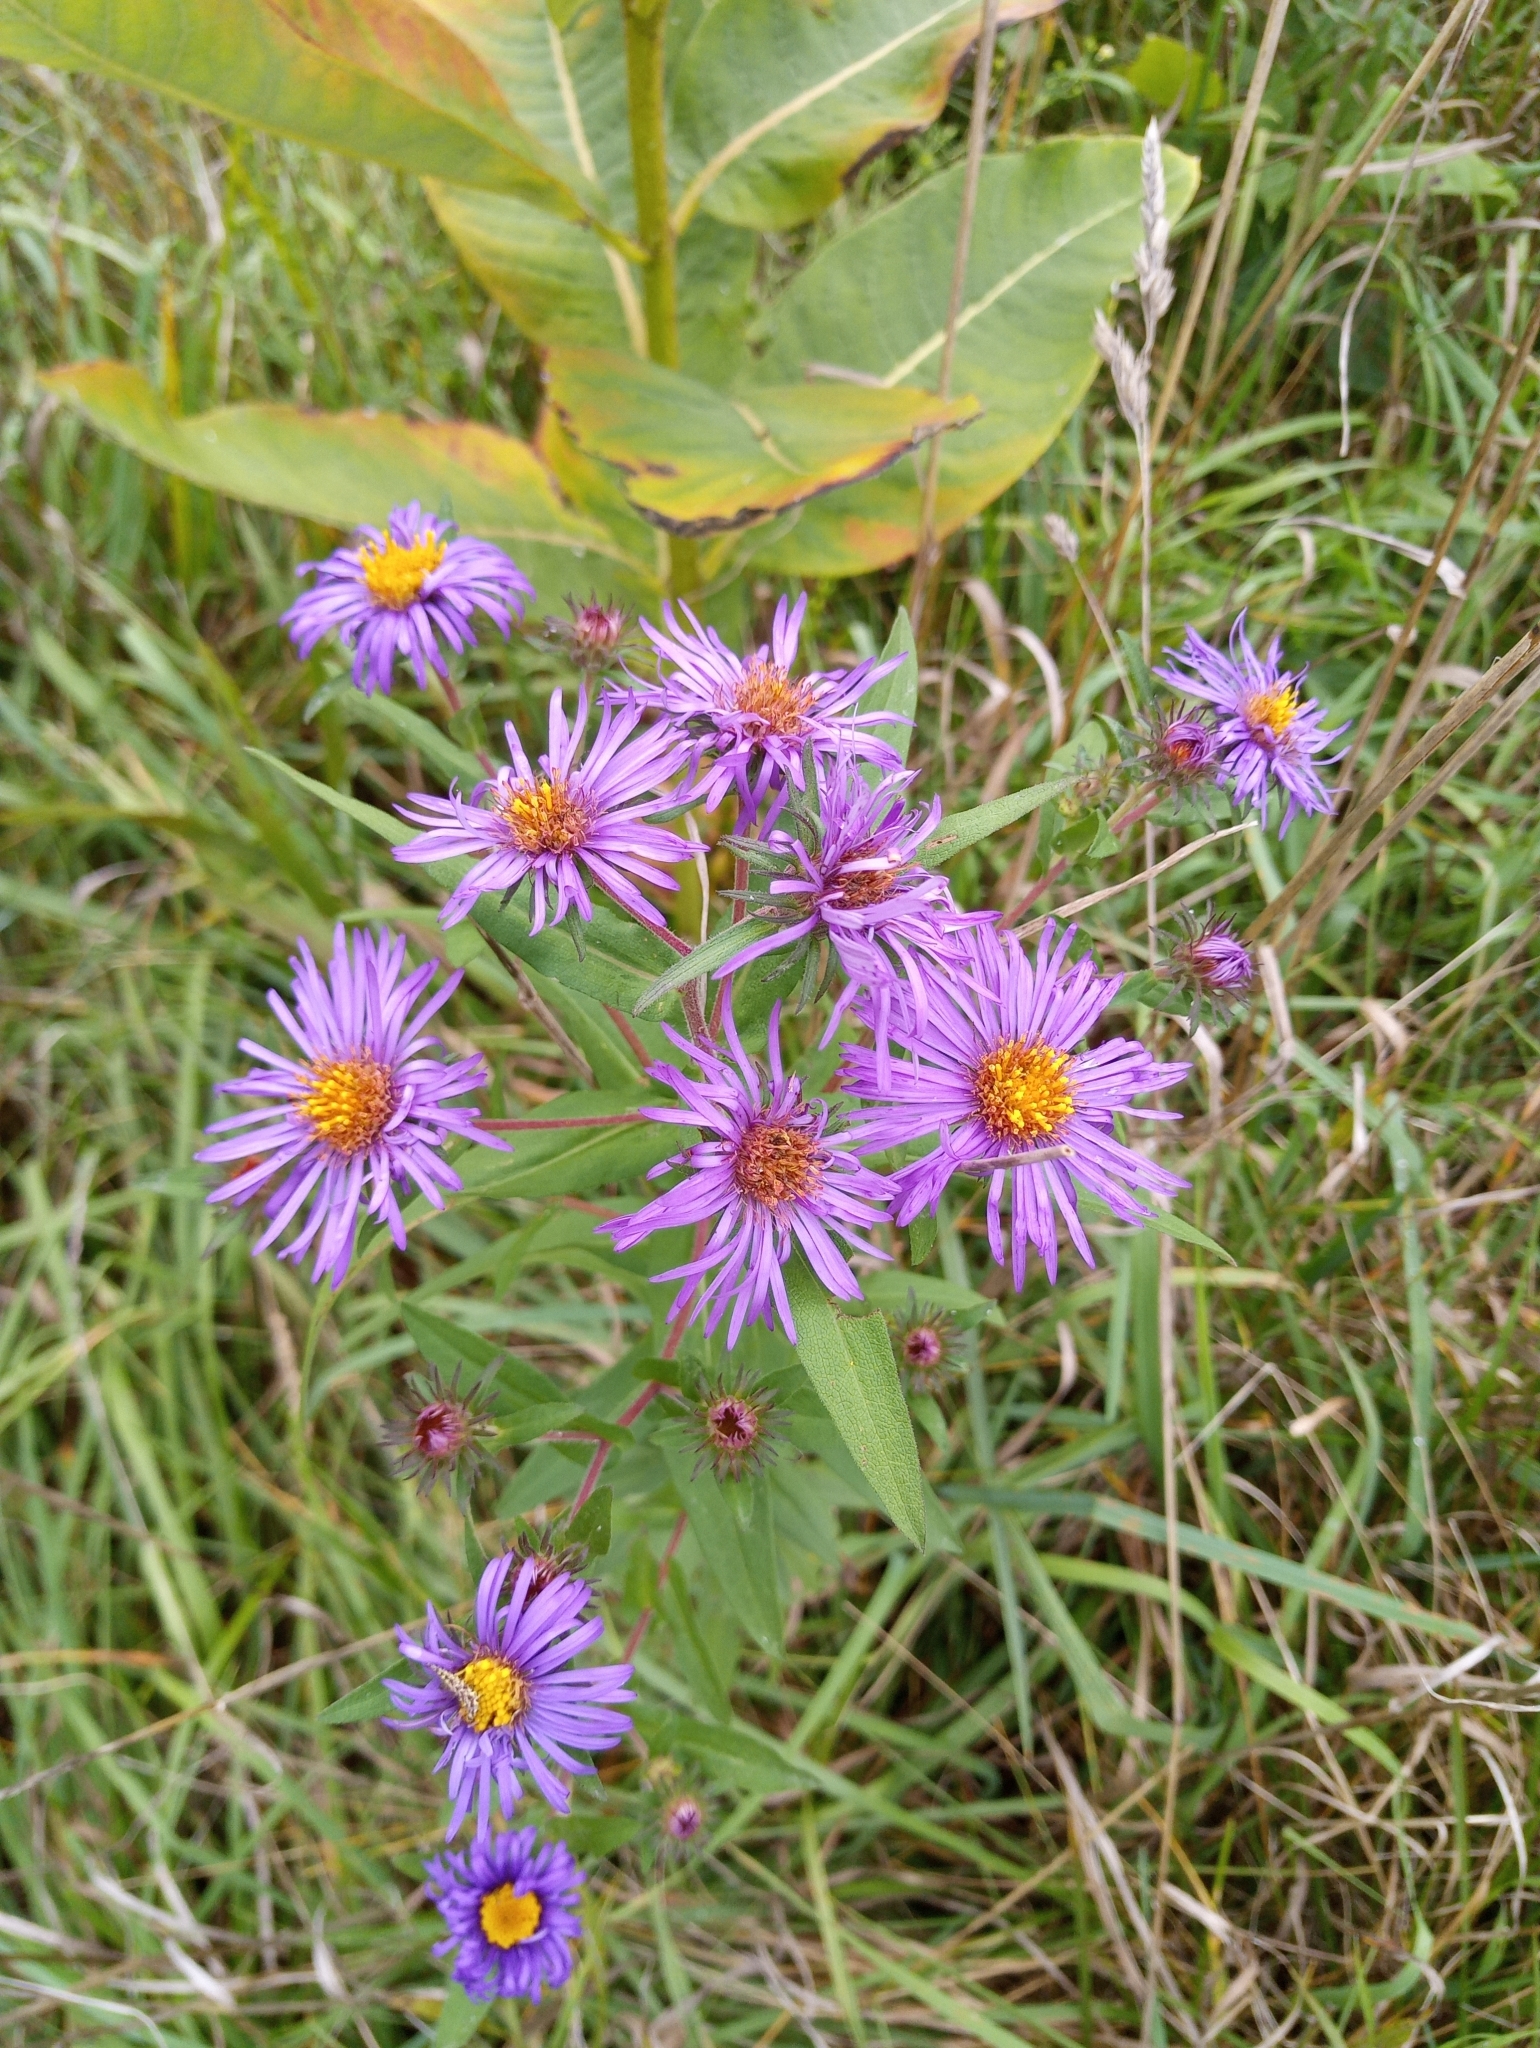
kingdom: Plantae
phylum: Tracheophyta
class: Magnoliopsida
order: Asterales
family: Asteraceae
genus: Symphyotrichum
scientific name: Symphyotrichum novae-angliae
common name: Michaelmas daisy
